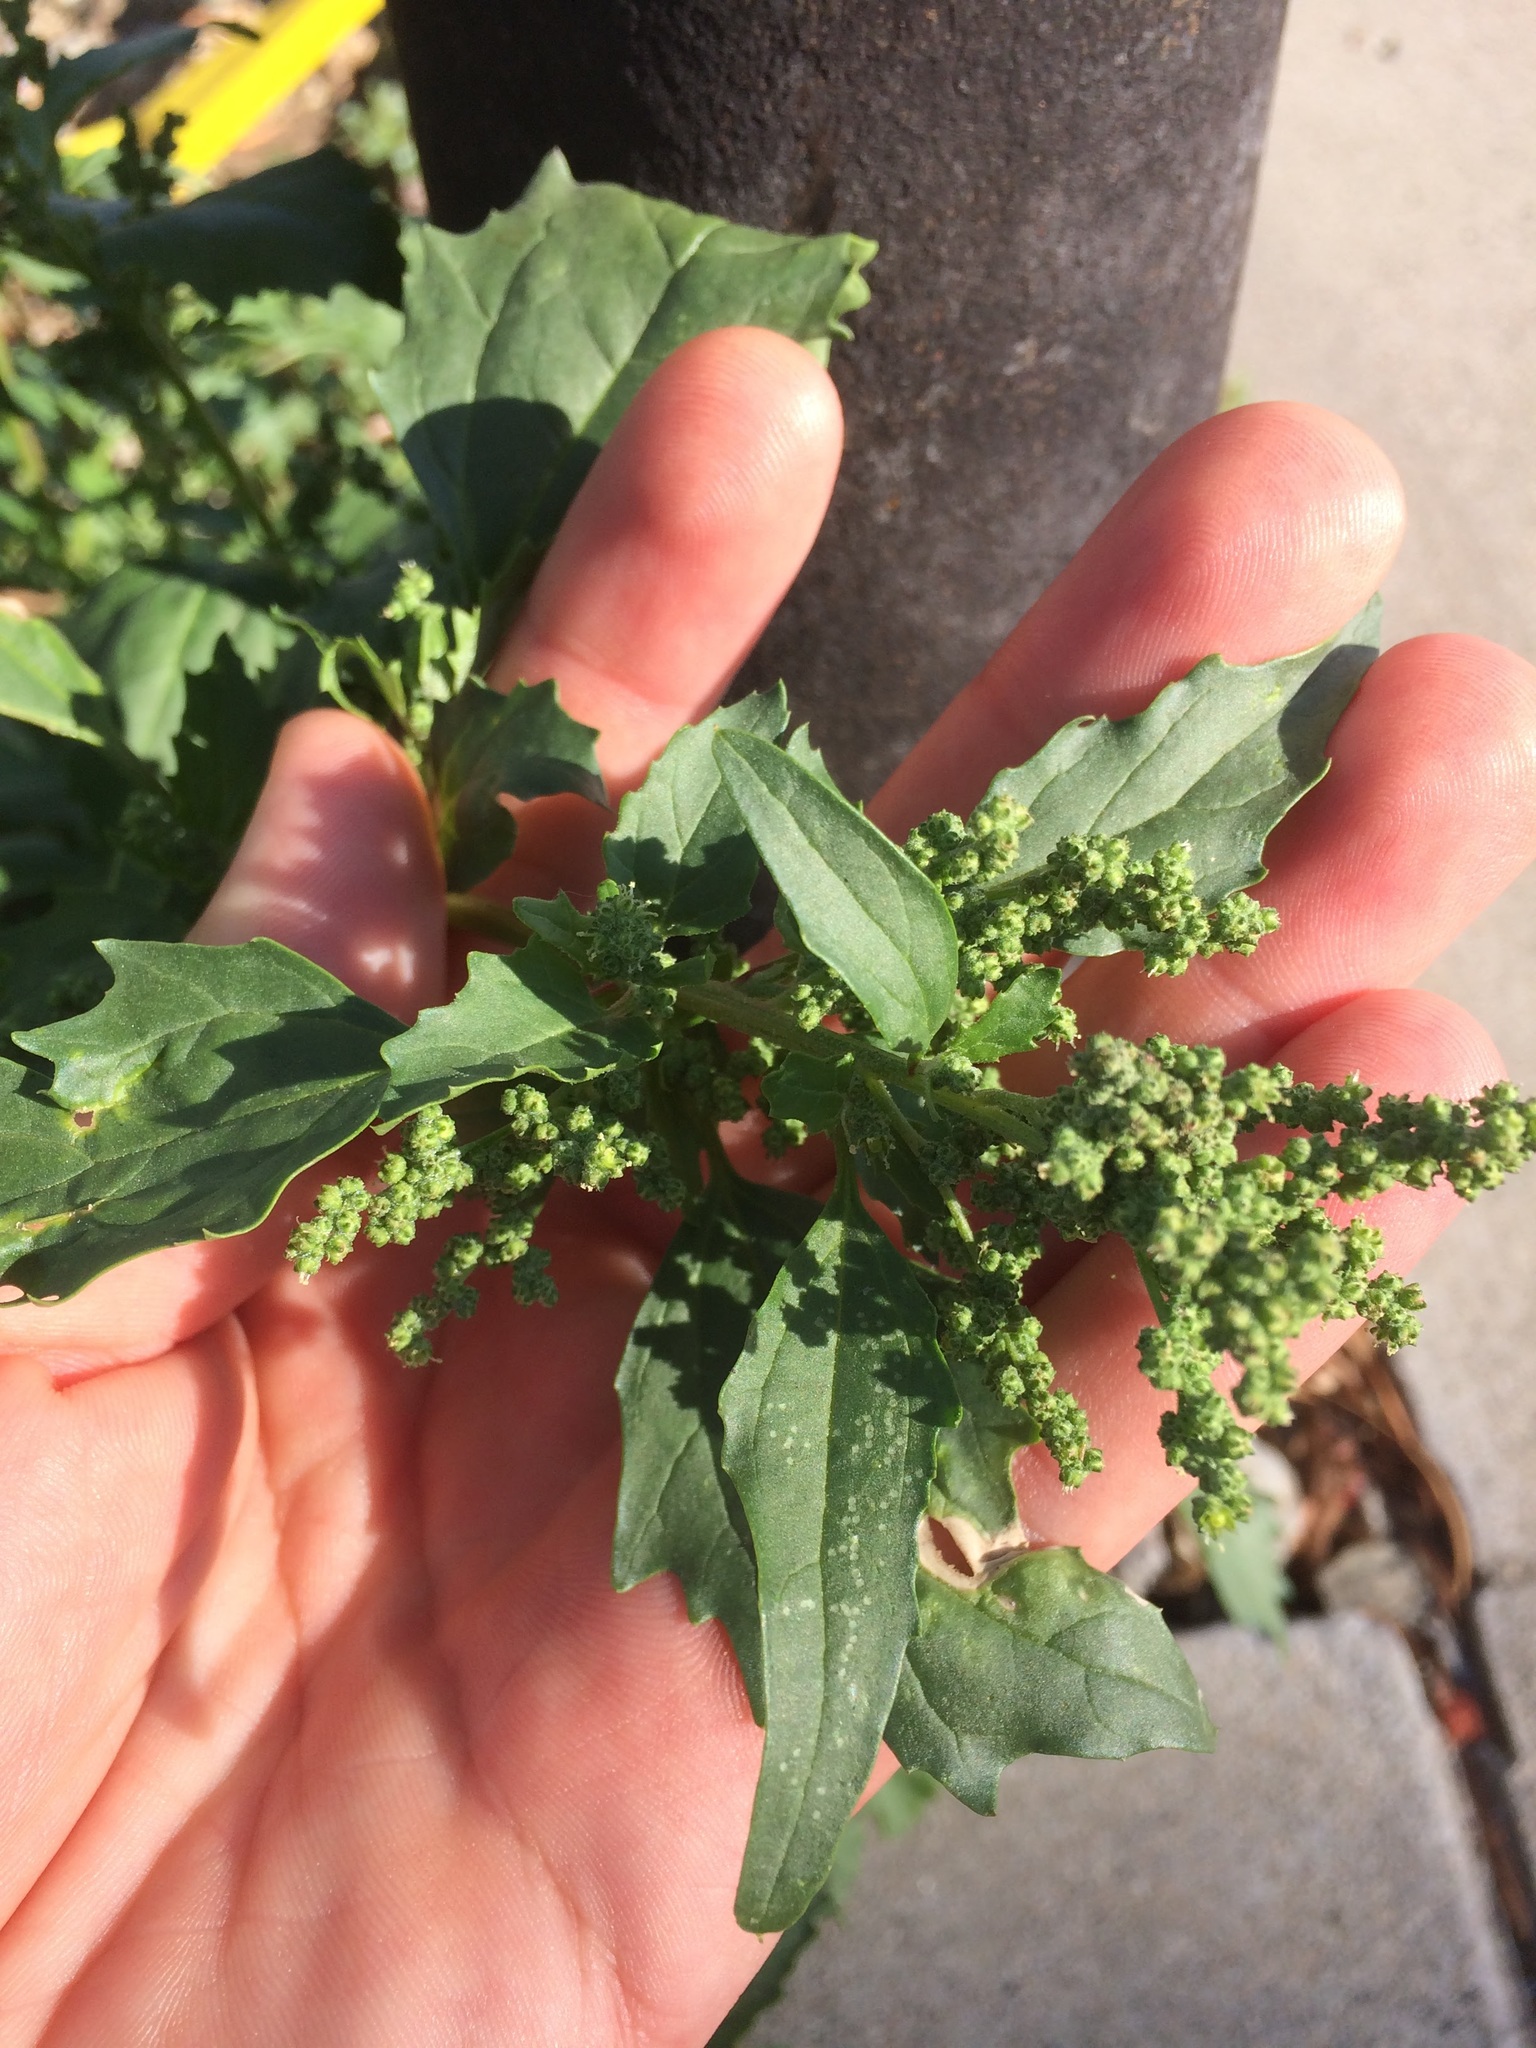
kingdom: Plantae
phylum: Tracheophyta
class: Magnoliopsida
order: Caryophyllales
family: Amaranthaceae
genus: Chenopodiastrum
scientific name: Chenopodiastrum murale
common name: Sowbane
